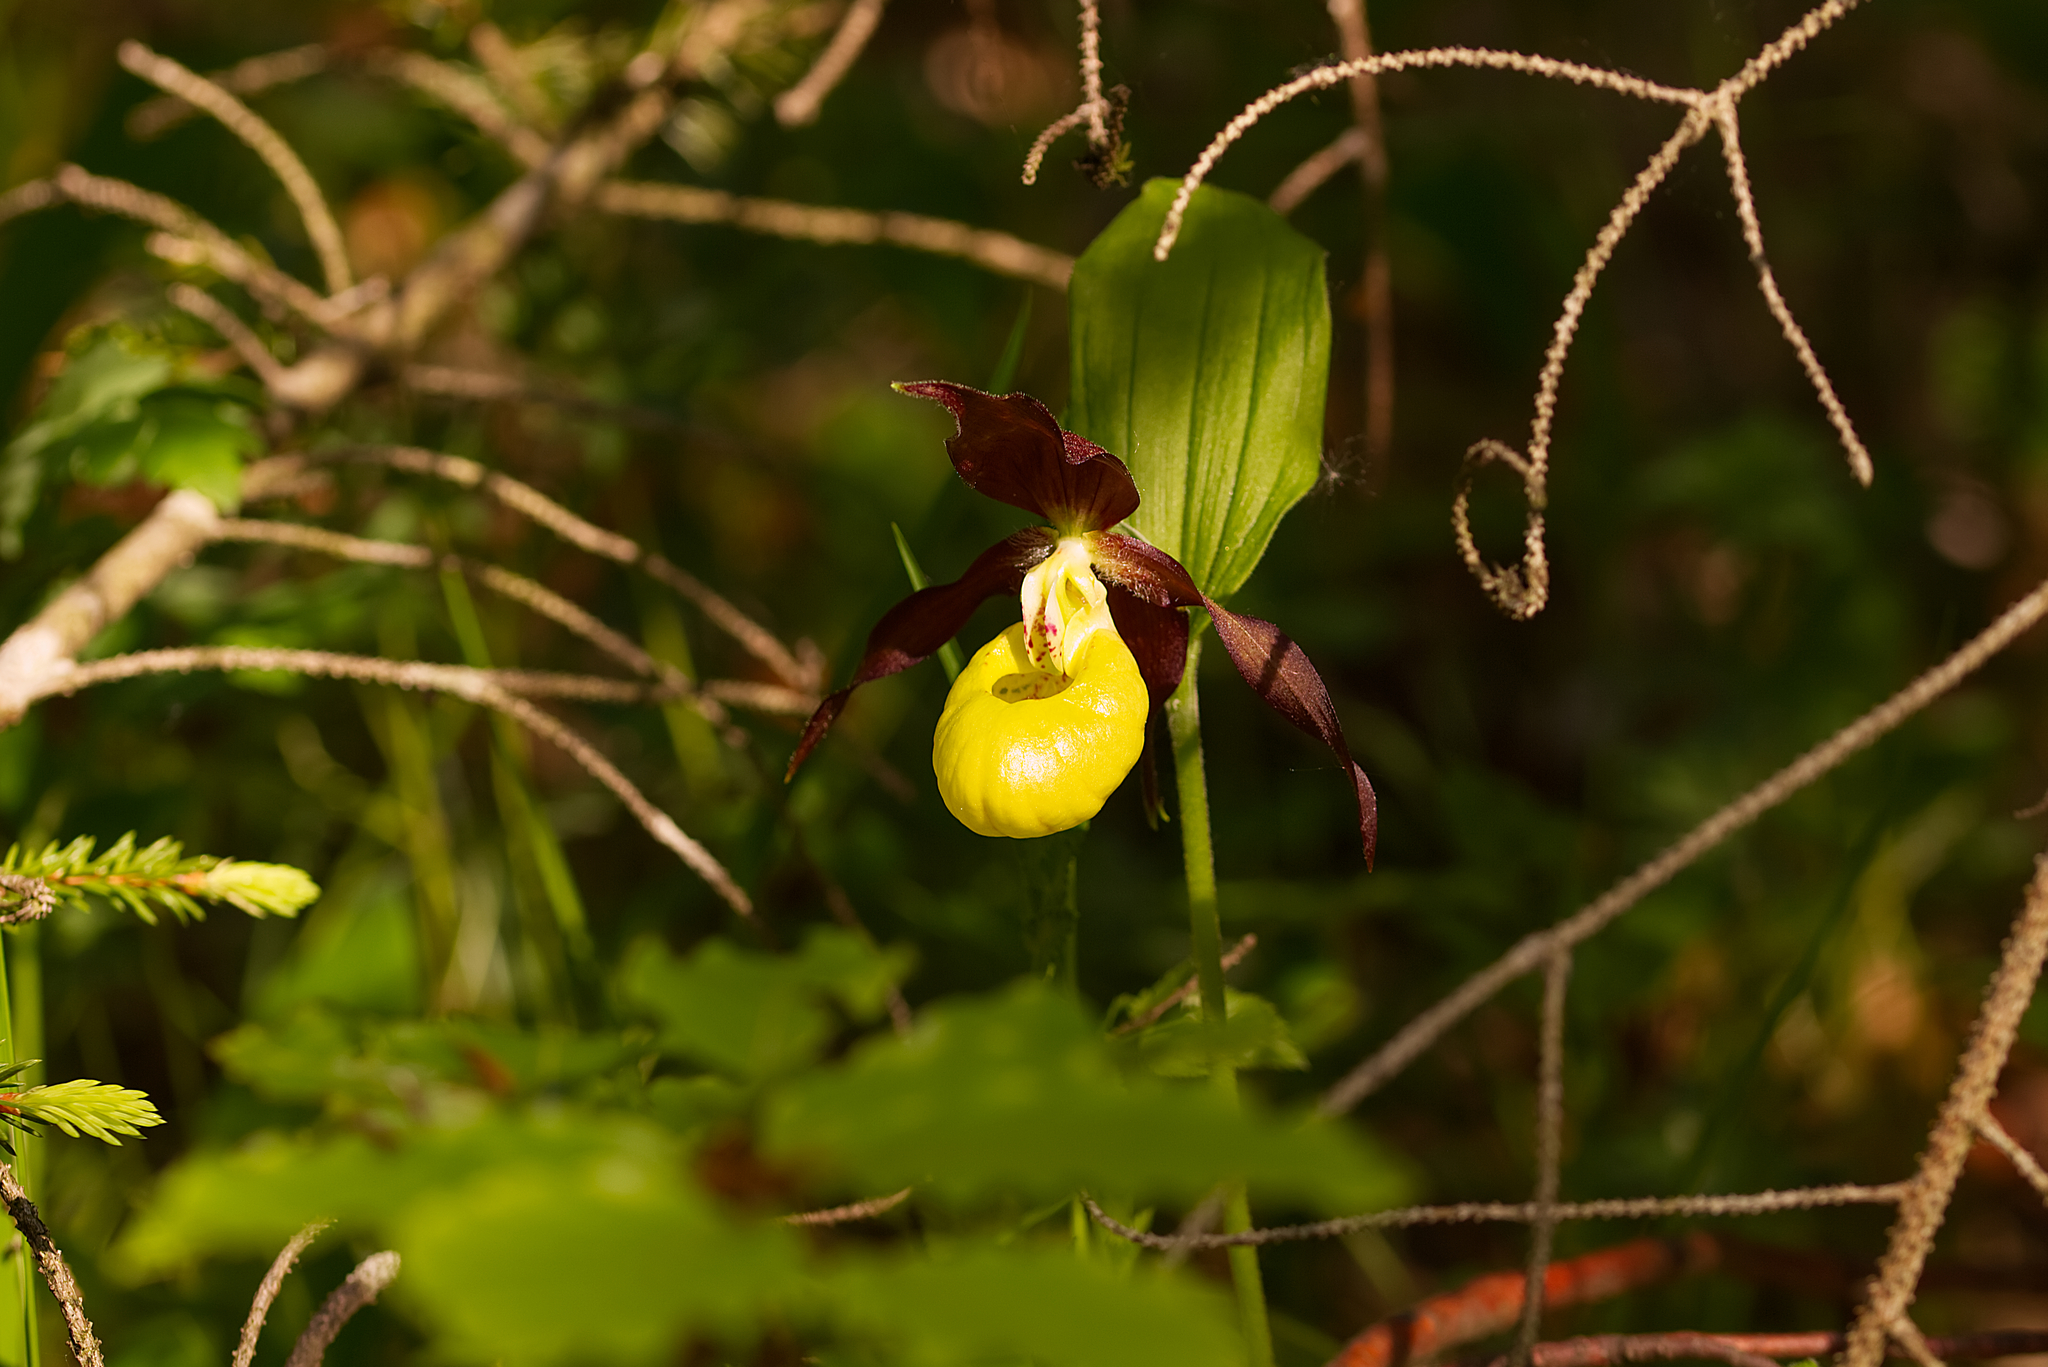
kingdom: Plantae
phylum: Tracheophyta
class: Liliopsida
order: Asparagales
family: Orchidaceae
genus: Cypripedium
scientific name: Cypripedium calceolus
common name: Lady's-slipper
